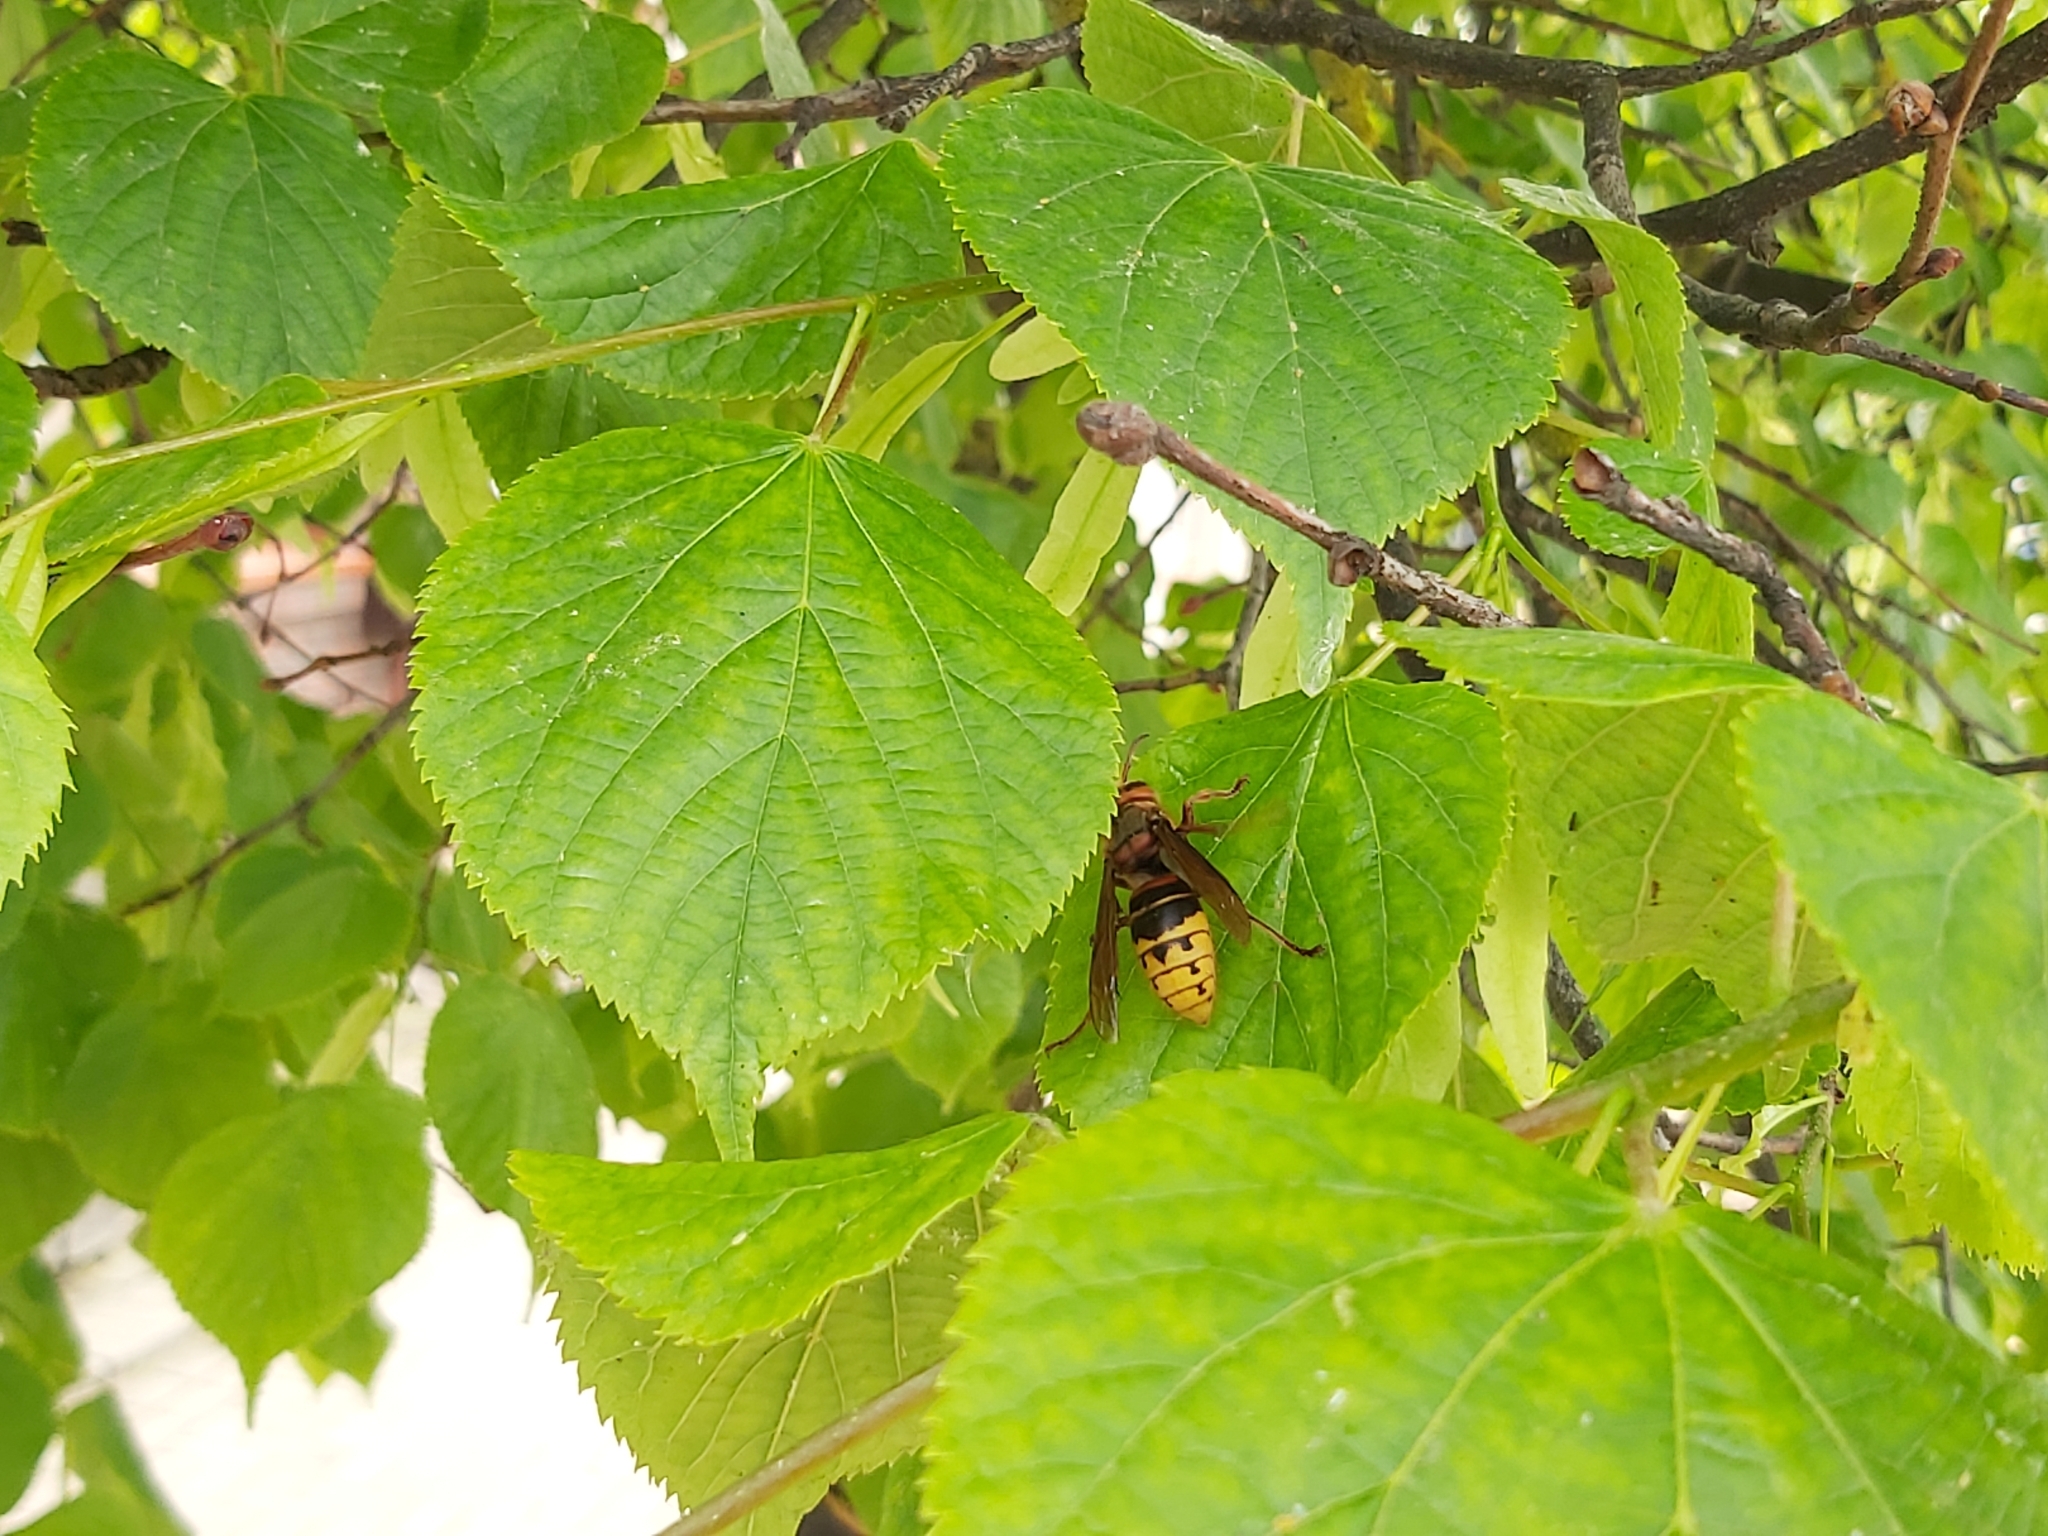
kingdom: Animalia
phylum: Arthropoda
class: Insecta
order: Hymenoptera
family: Vespidae
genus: Vespa
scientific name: Vespa crabro
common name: Hornet
